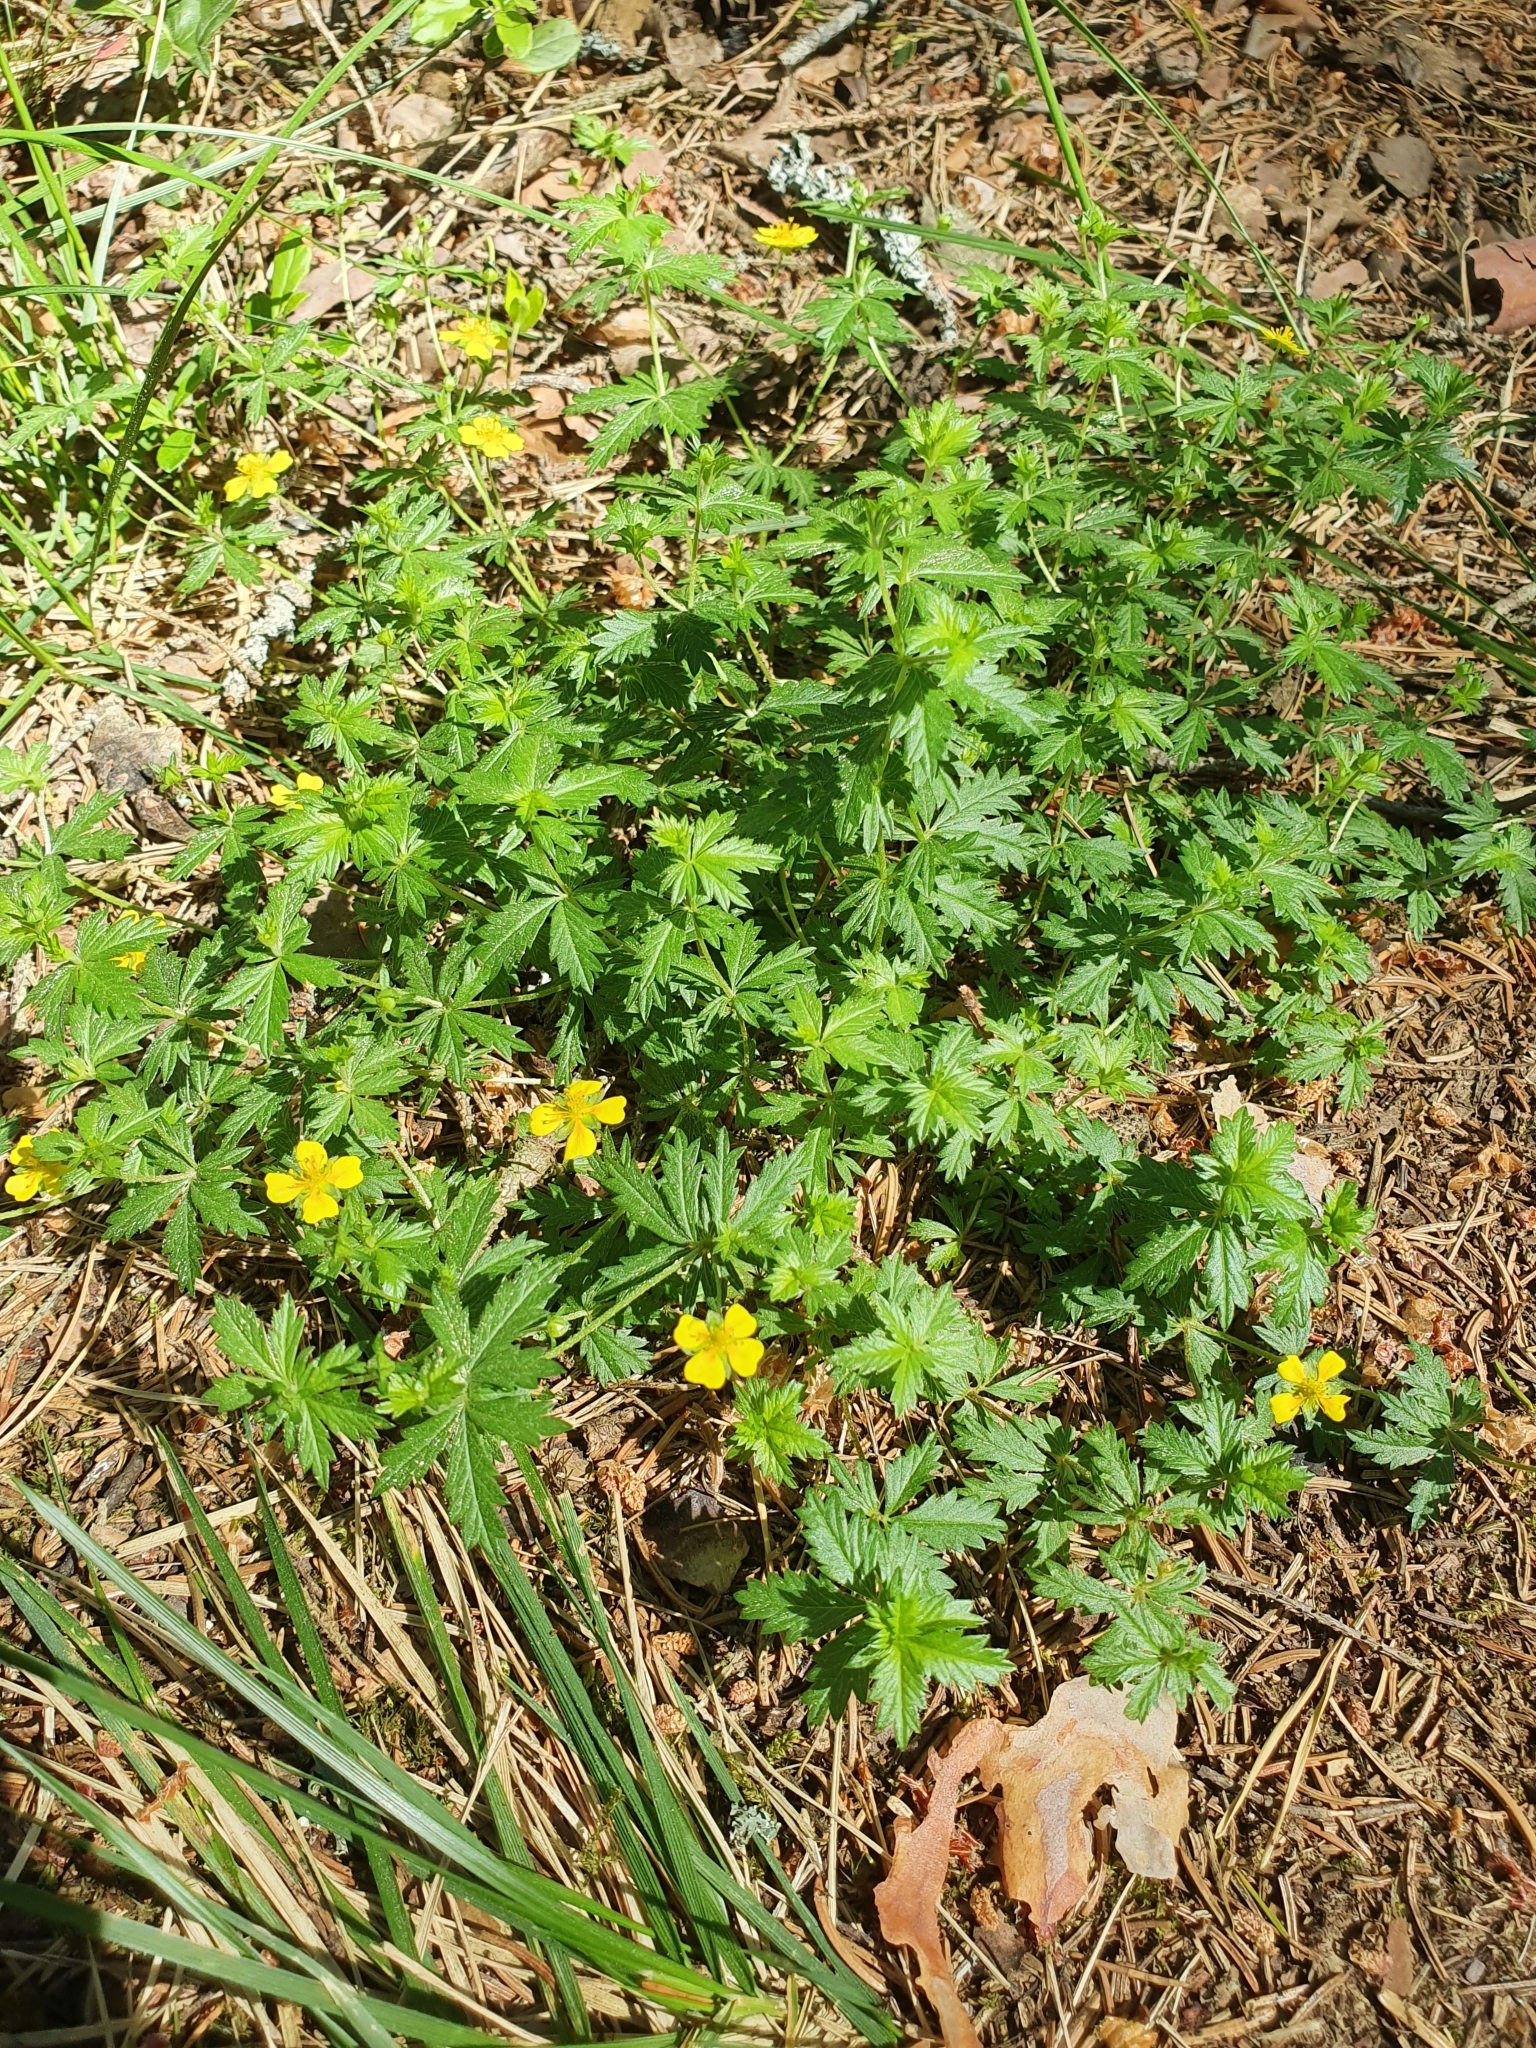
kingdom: Plantae
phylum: Tracheophyta
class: Magnoliopsida
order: Rosales
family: Rosaceae
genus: Potentilla
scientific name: Potentilla erecta
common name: Tormentil
